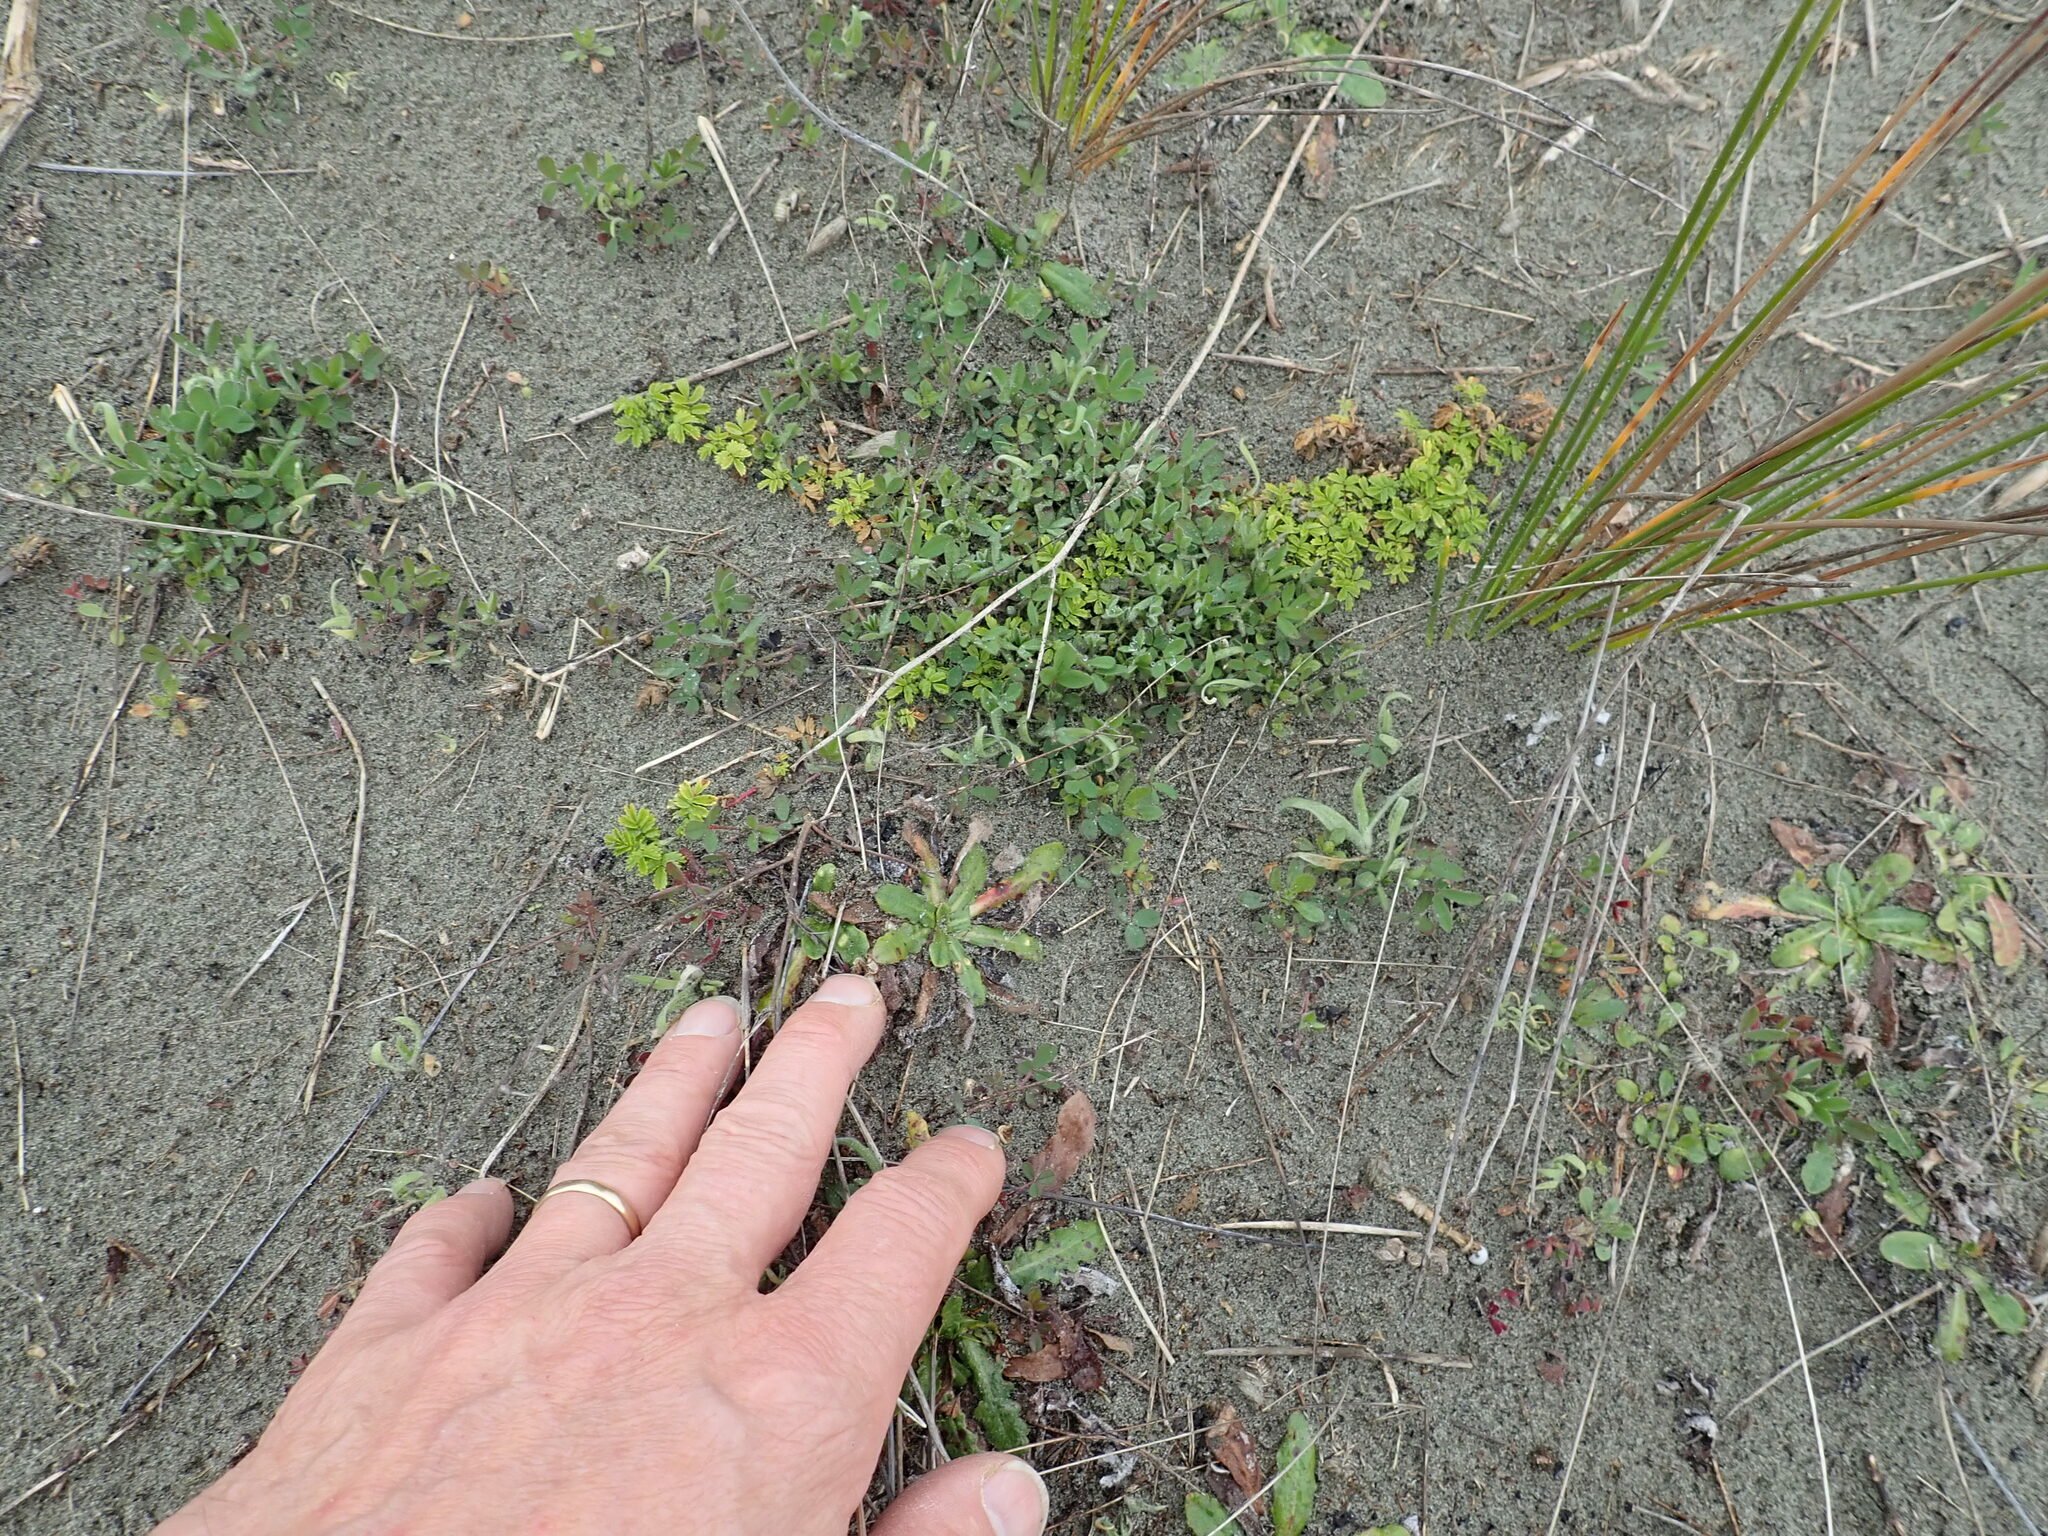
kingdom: Plantae
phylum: Tracheophyta
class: Magnoliopsida
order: Rosales
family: Rosaceae
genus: Acaena
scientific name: Acaena novae-zelandiae
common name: Pirri-pirri-bur
